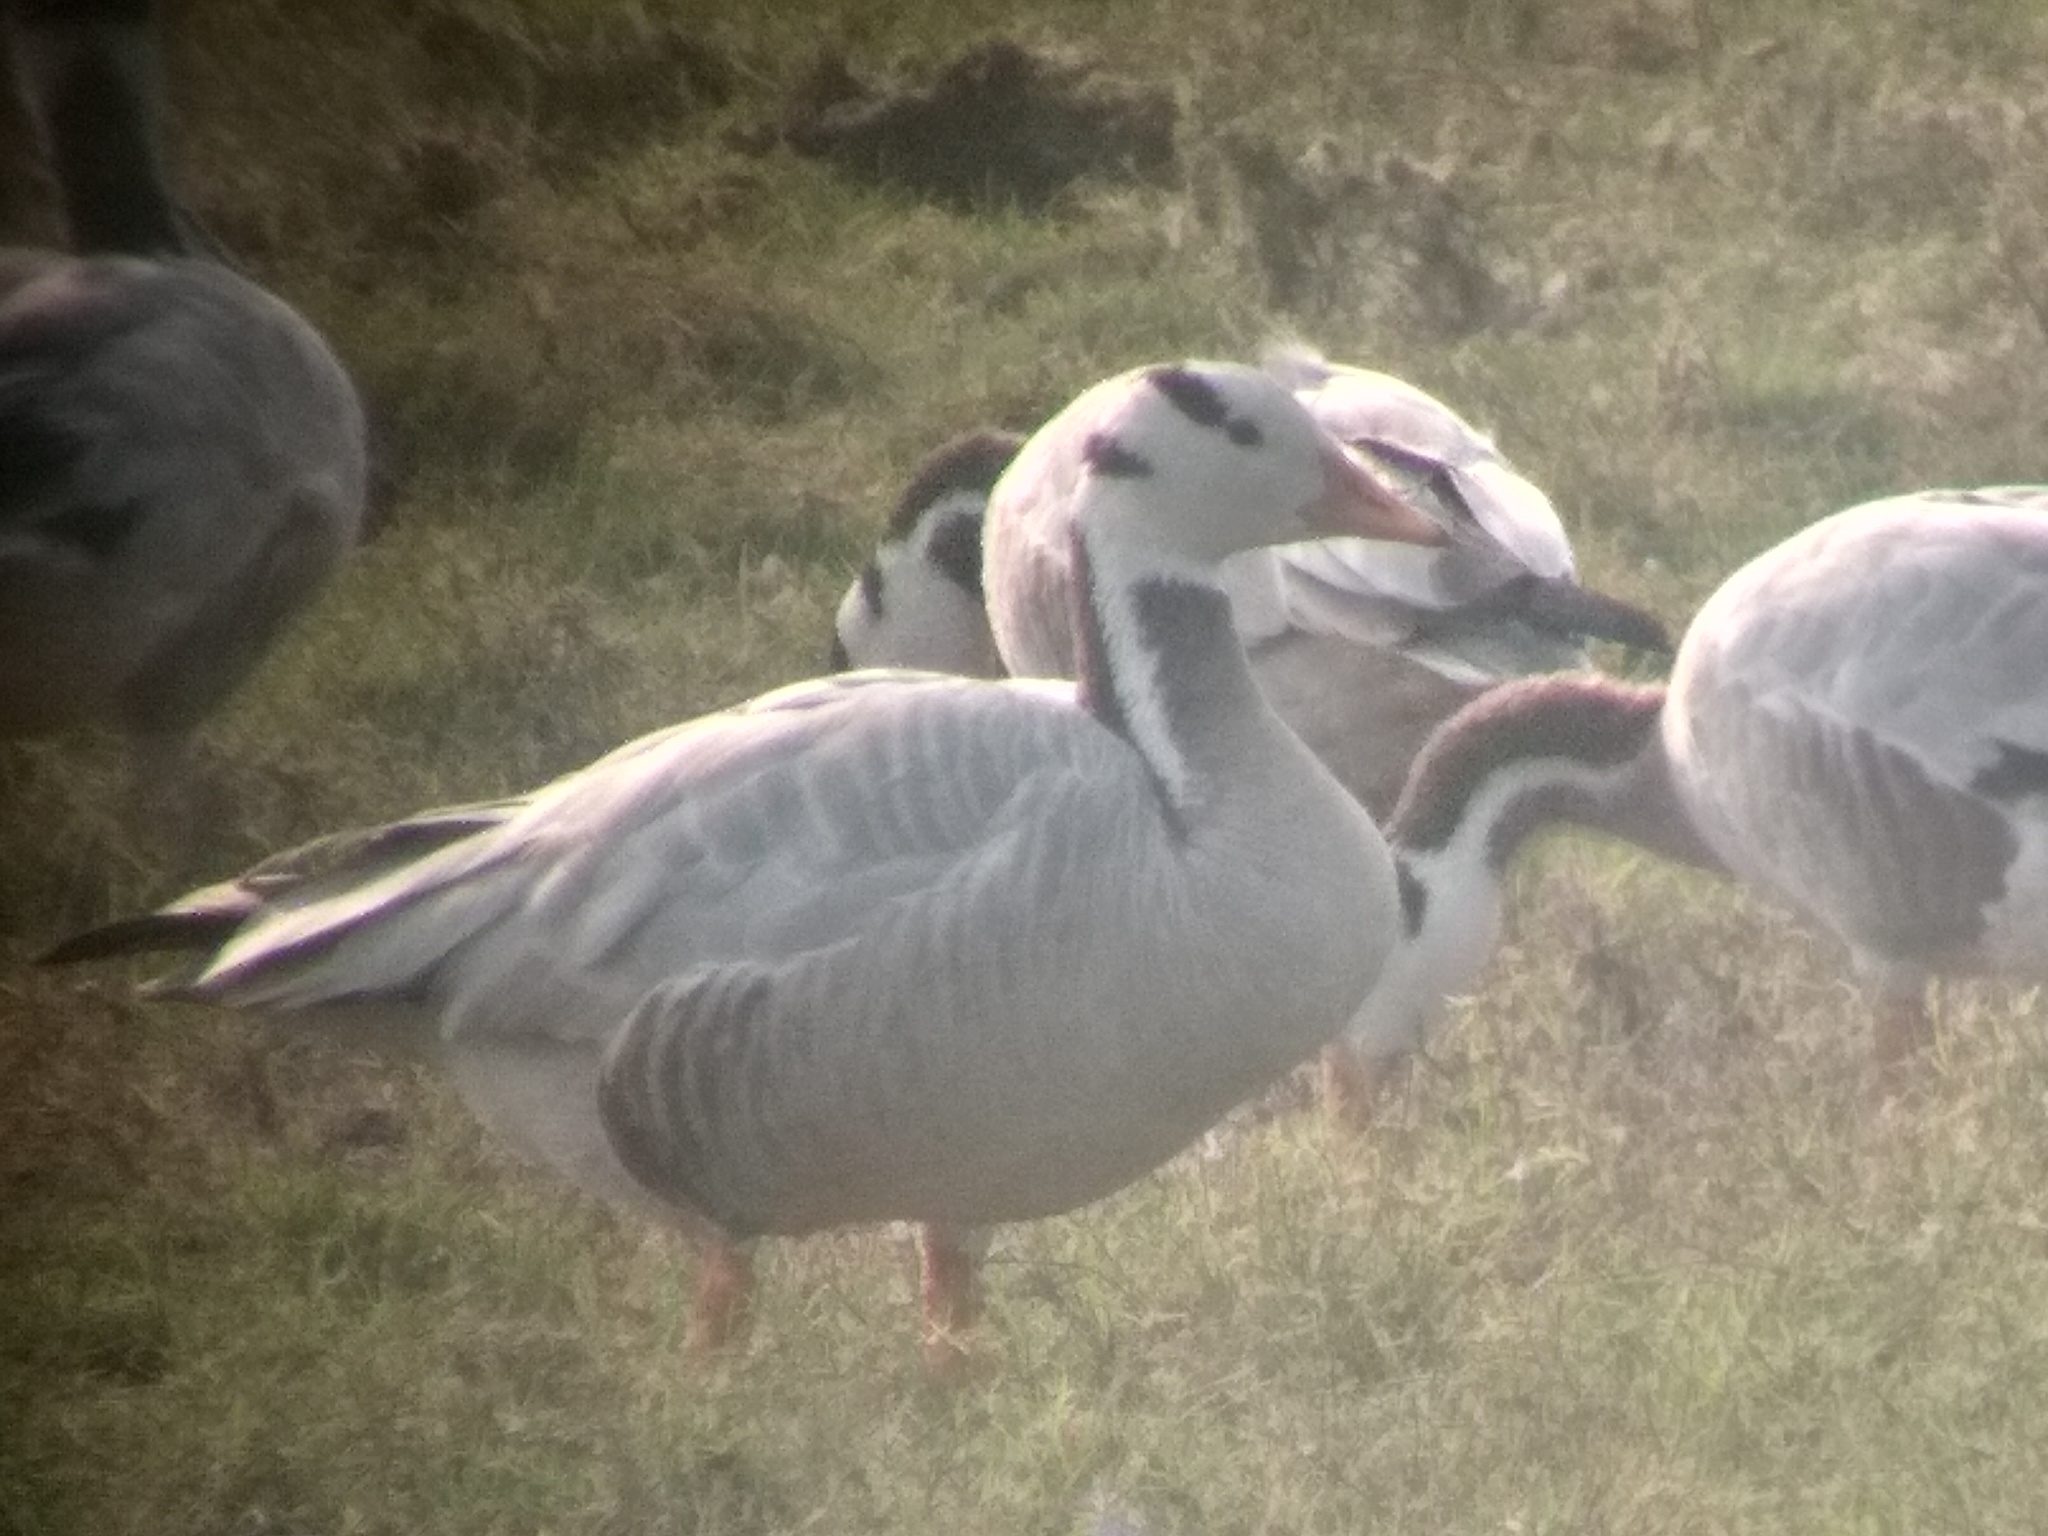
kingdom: Animalia
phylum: Chordata
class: Aves
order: Anseriformes
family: Anatidae
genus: Anser
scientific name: Anser indicus
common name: Bar-headed goose
